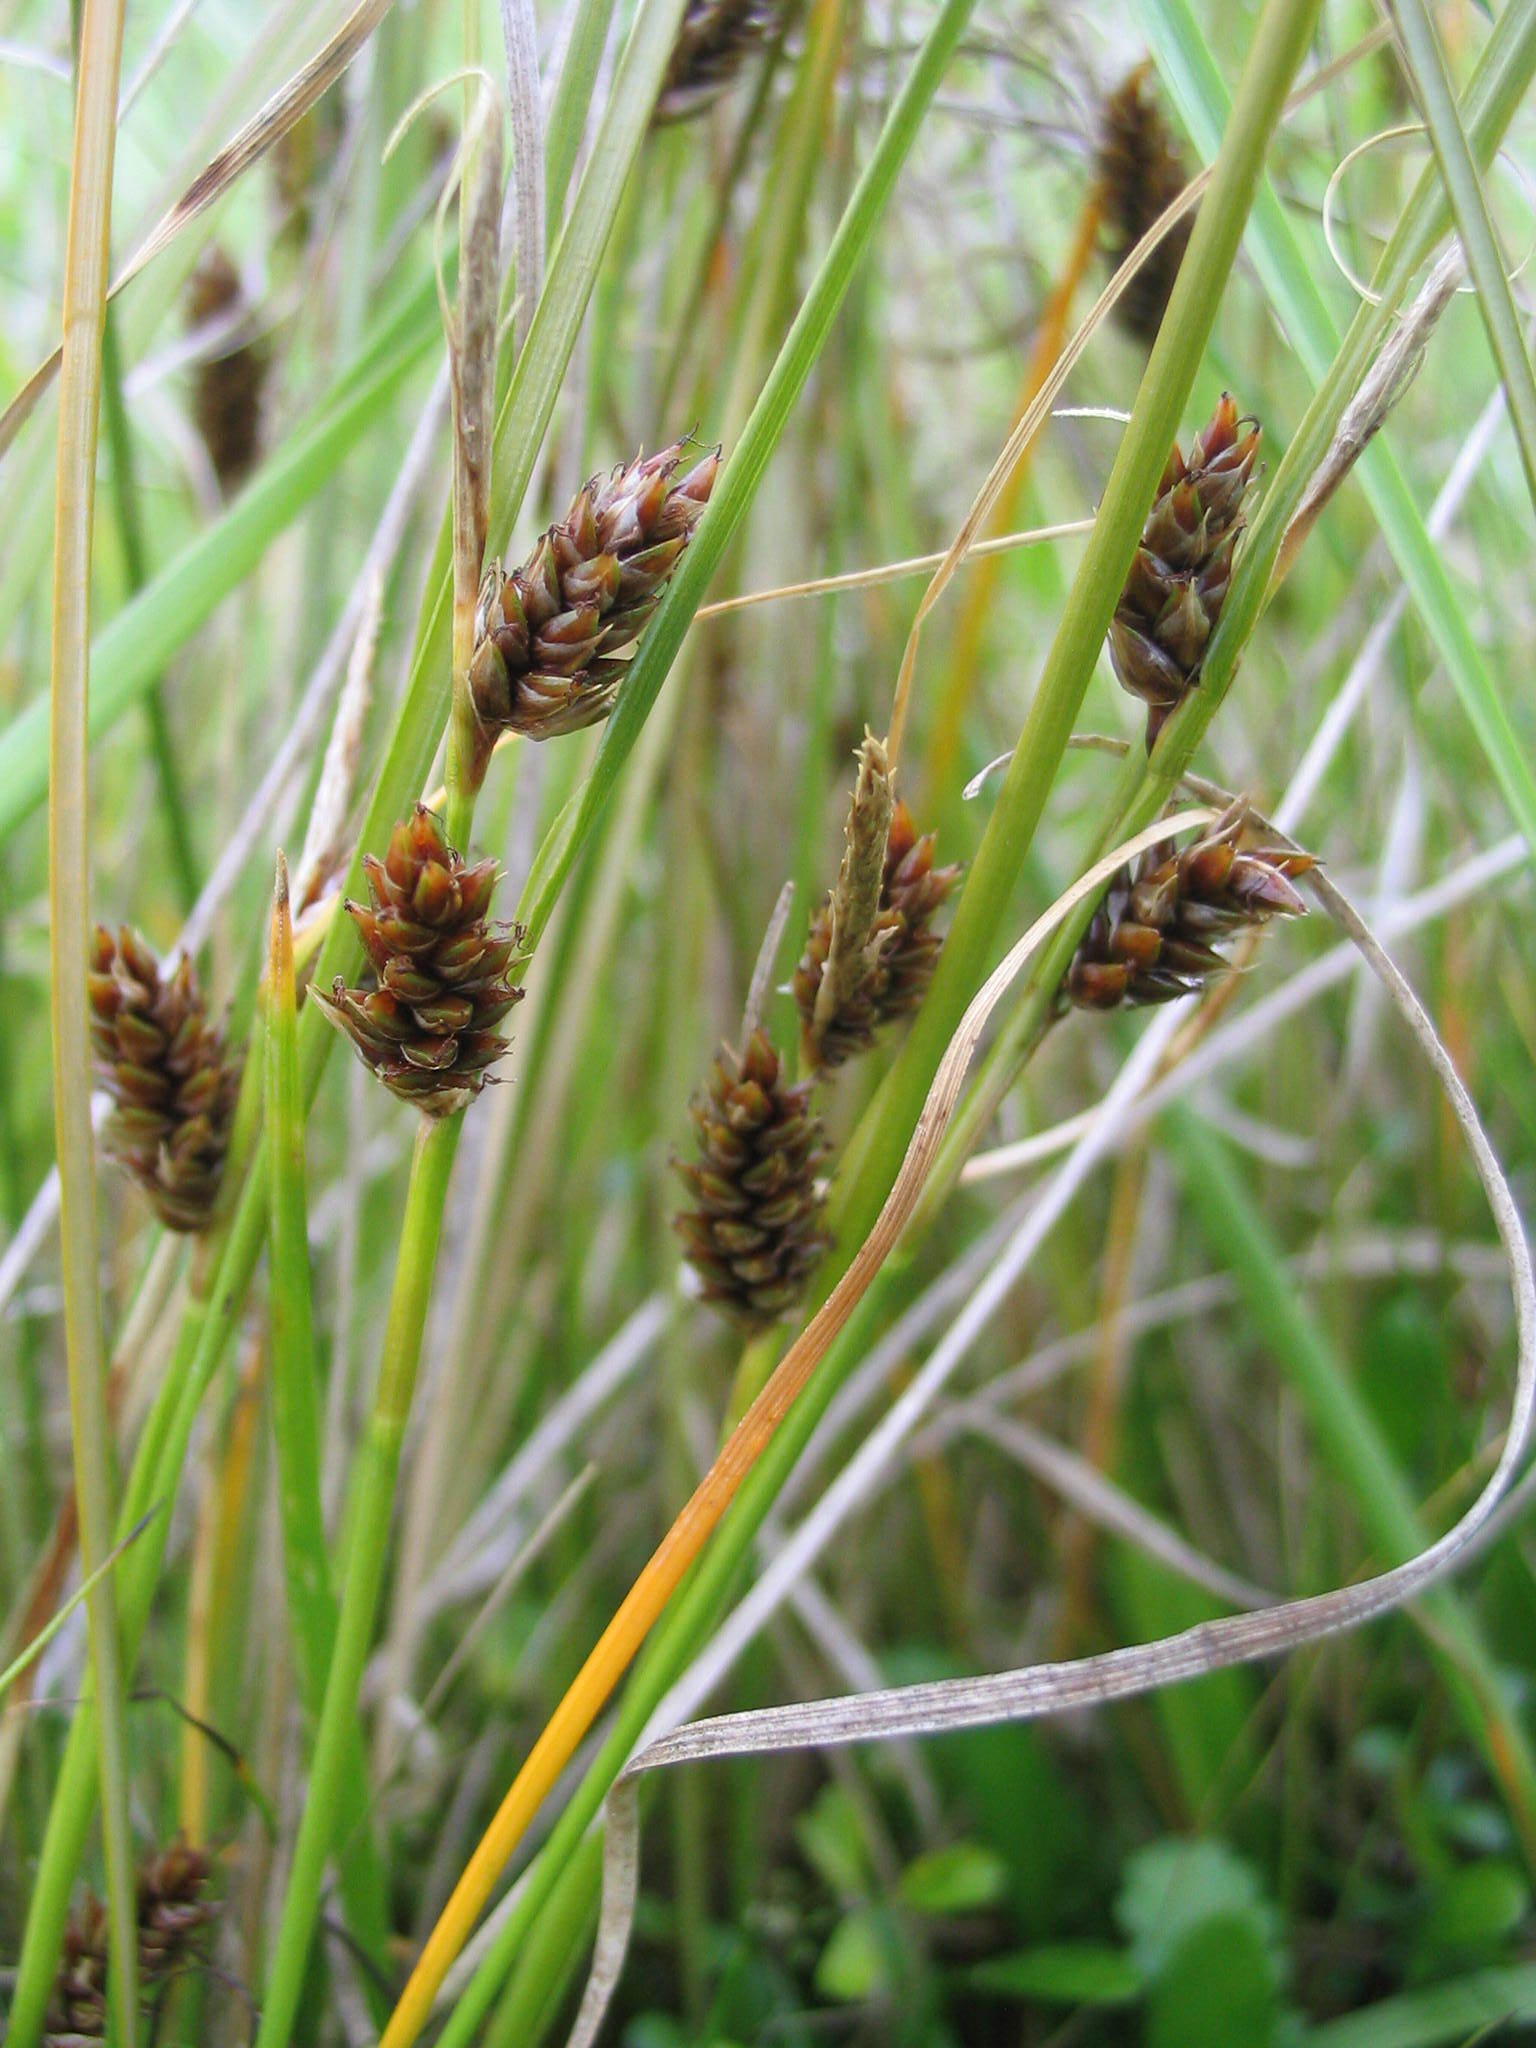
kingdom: Plantae
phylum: Tracheophyta
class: Liliopsida
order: Poales
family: Cyperaceae
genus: Carex
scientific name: Carex litorosa
